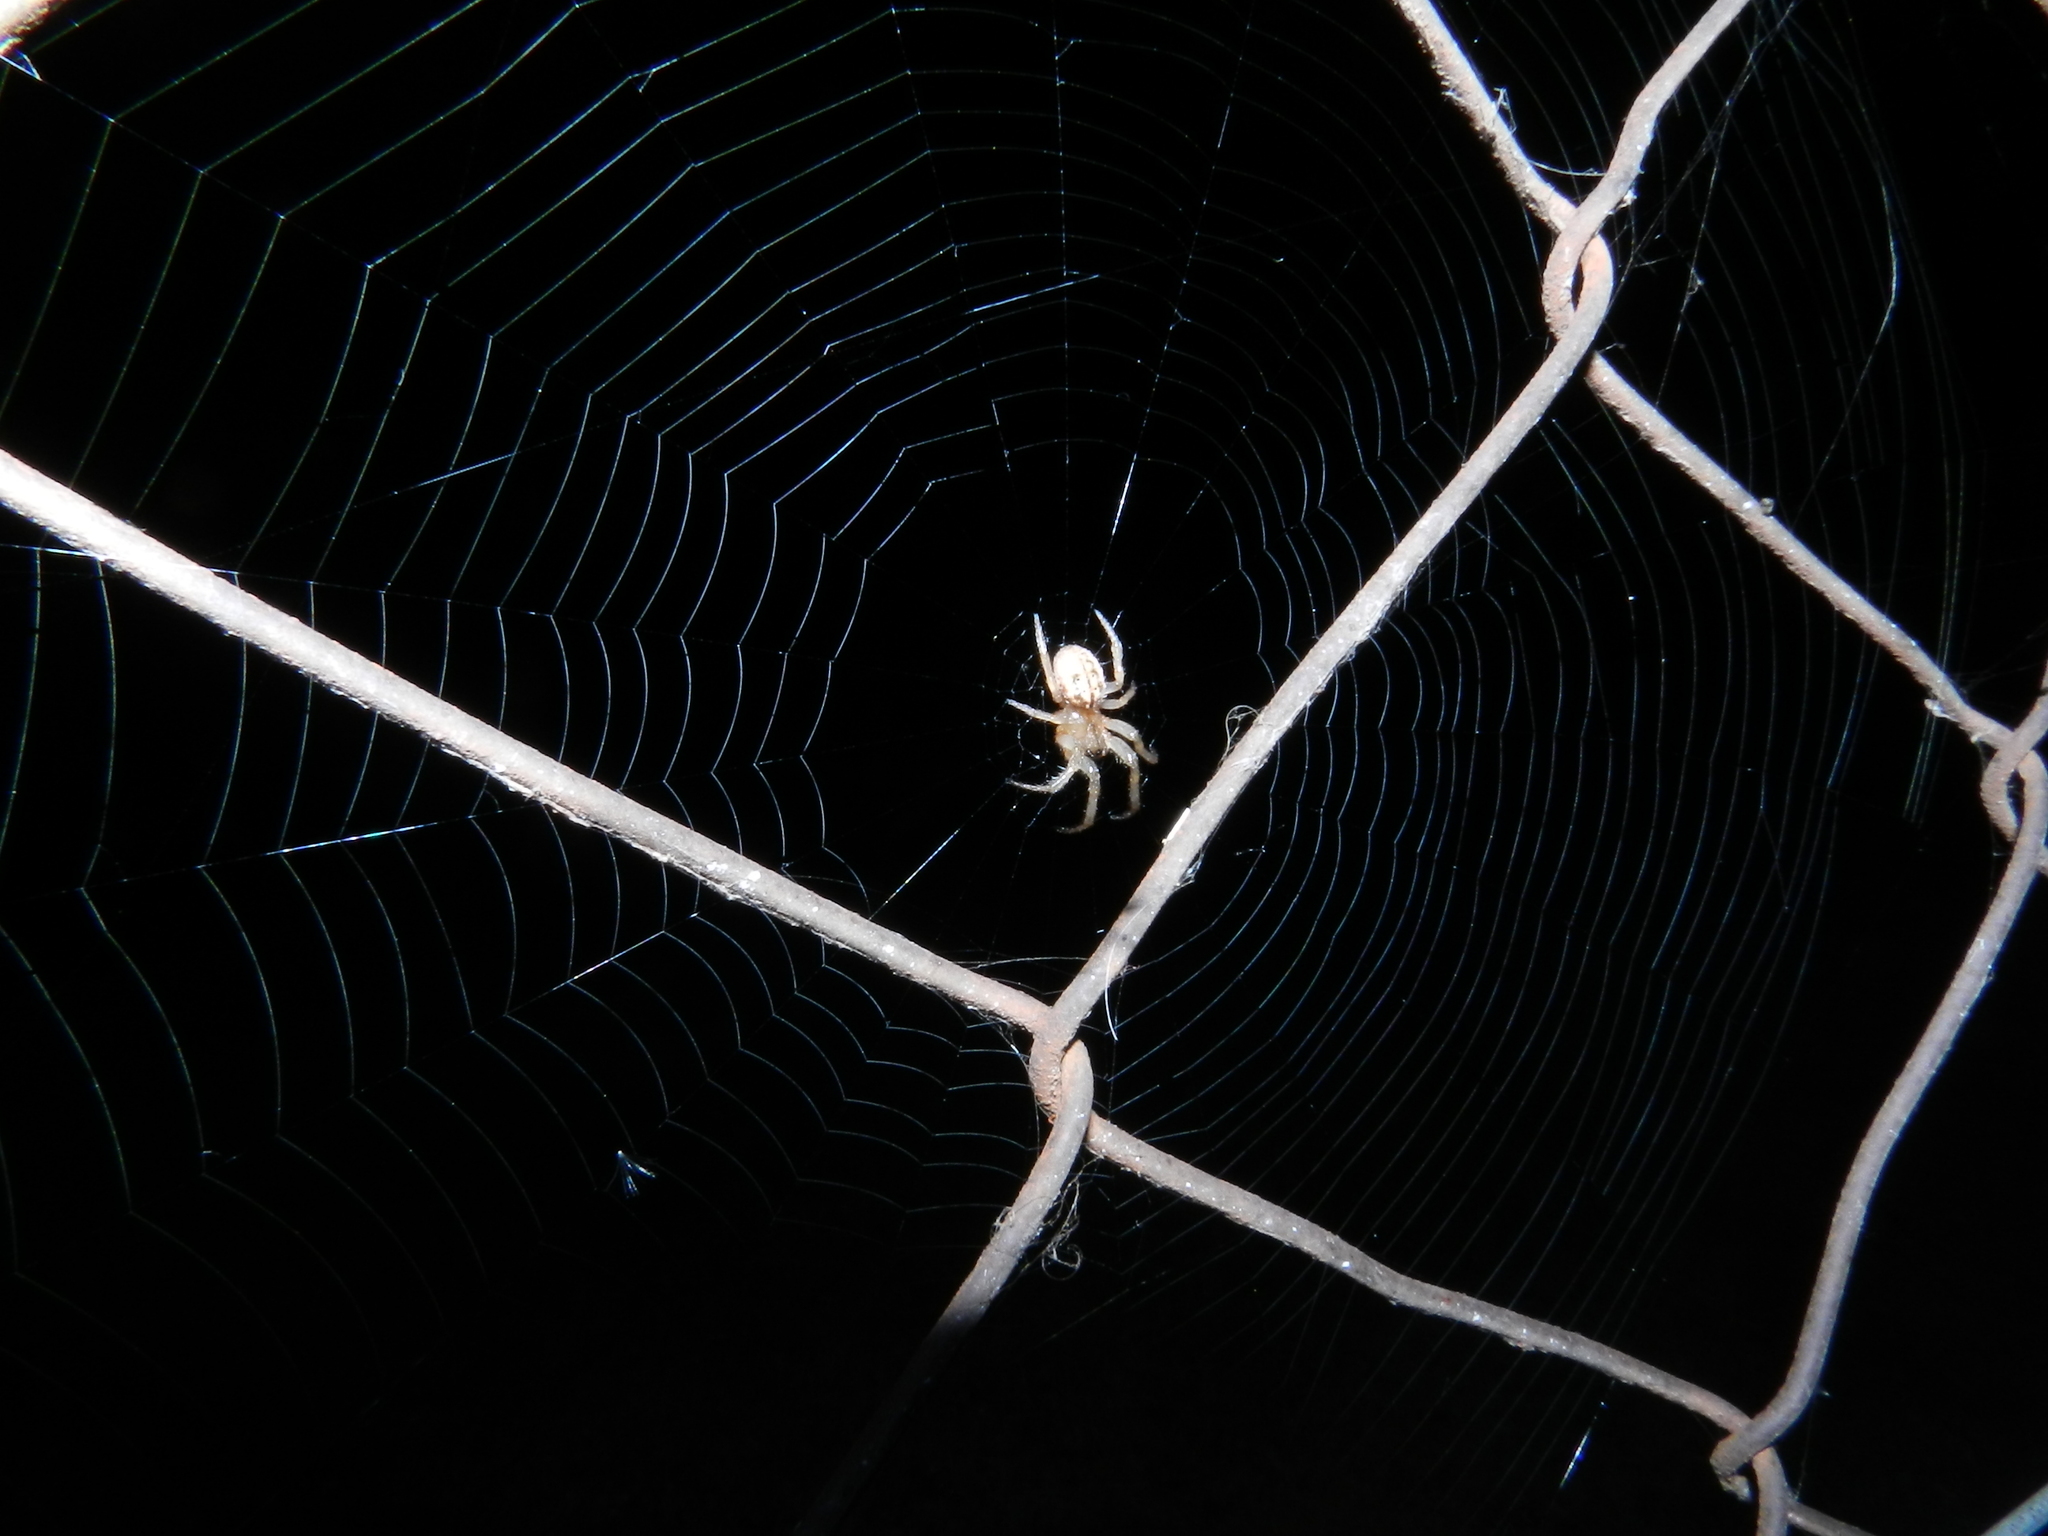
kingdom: Animalia
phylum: Arthropoda
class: Arachnida
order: Araneae
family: Araneidae
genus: Metazygia
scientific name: Metazygia
